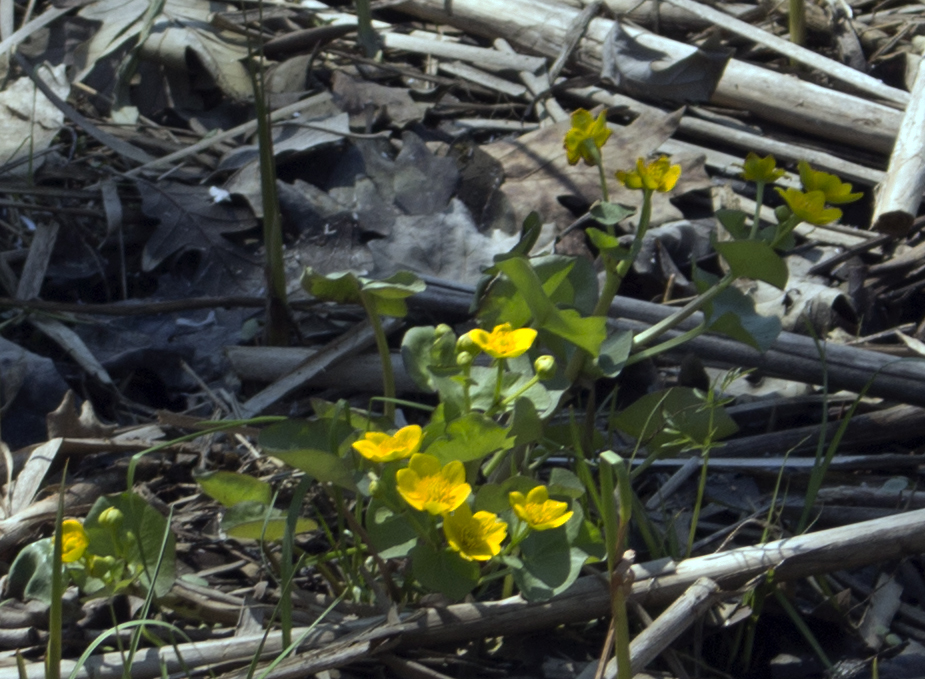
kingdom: Plantae
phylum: Tracheophyta
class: Magnoliopsida
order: Ranunculales
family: Ranunculaceae
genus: Caltha
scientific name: Caltha palustris
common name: Marsh marigold
